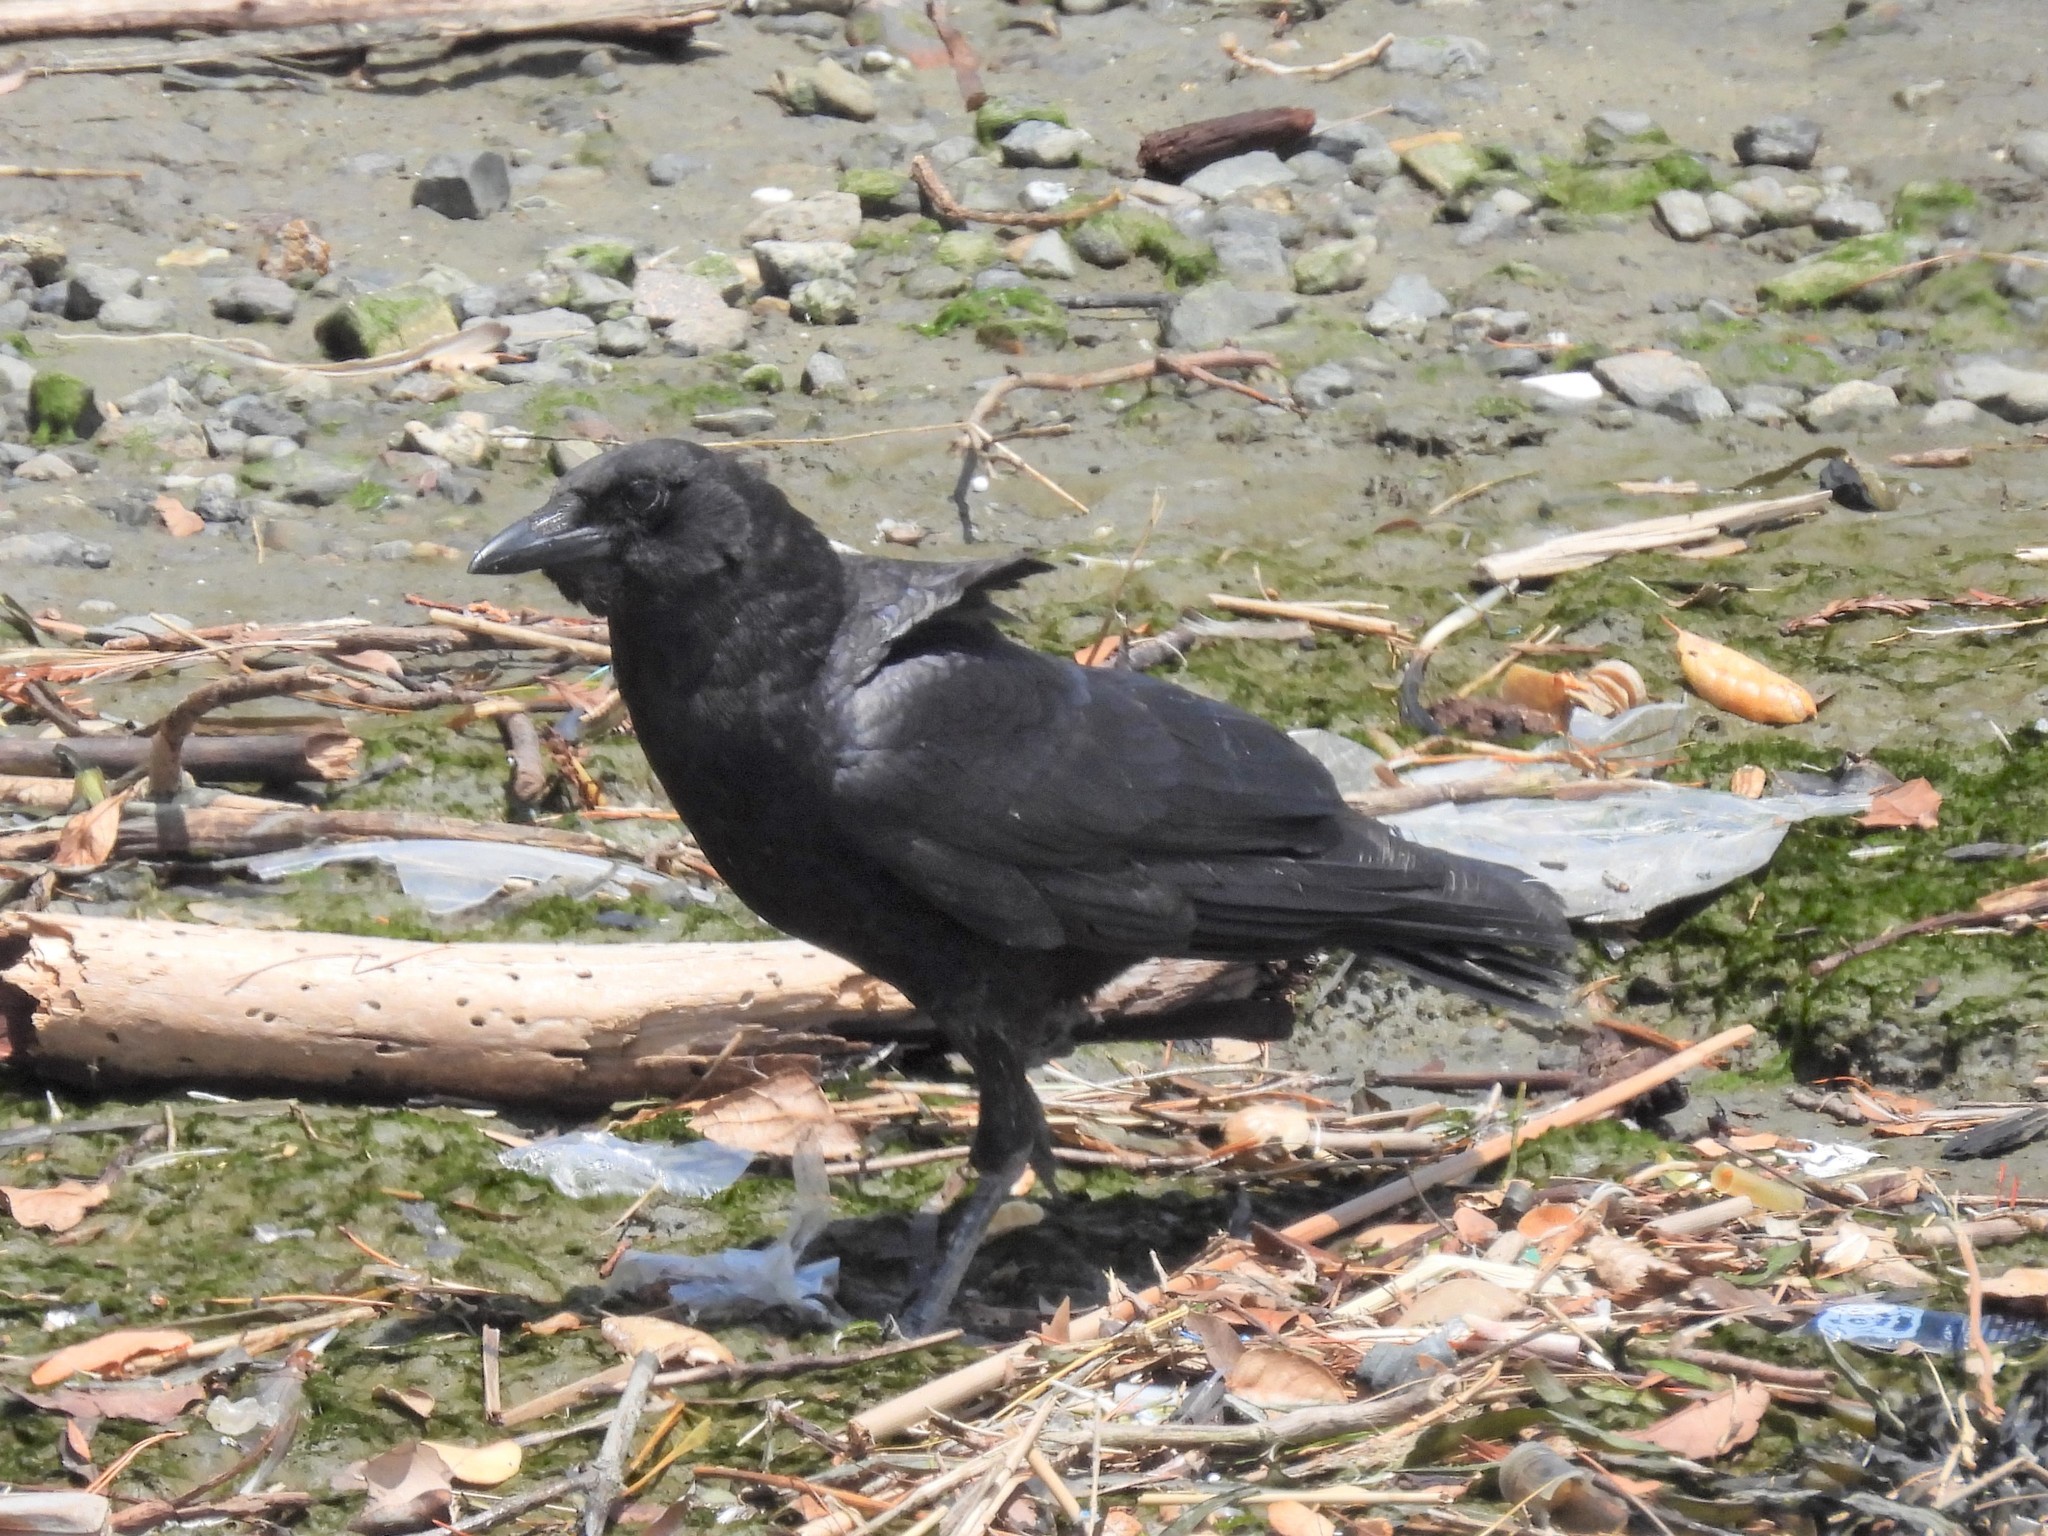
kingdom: Animalia
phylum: Chordata
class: Aves
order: Passeriformes
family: Corvidae
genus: Corvus
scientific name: Corvus brachyrhynchos
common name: American crow
